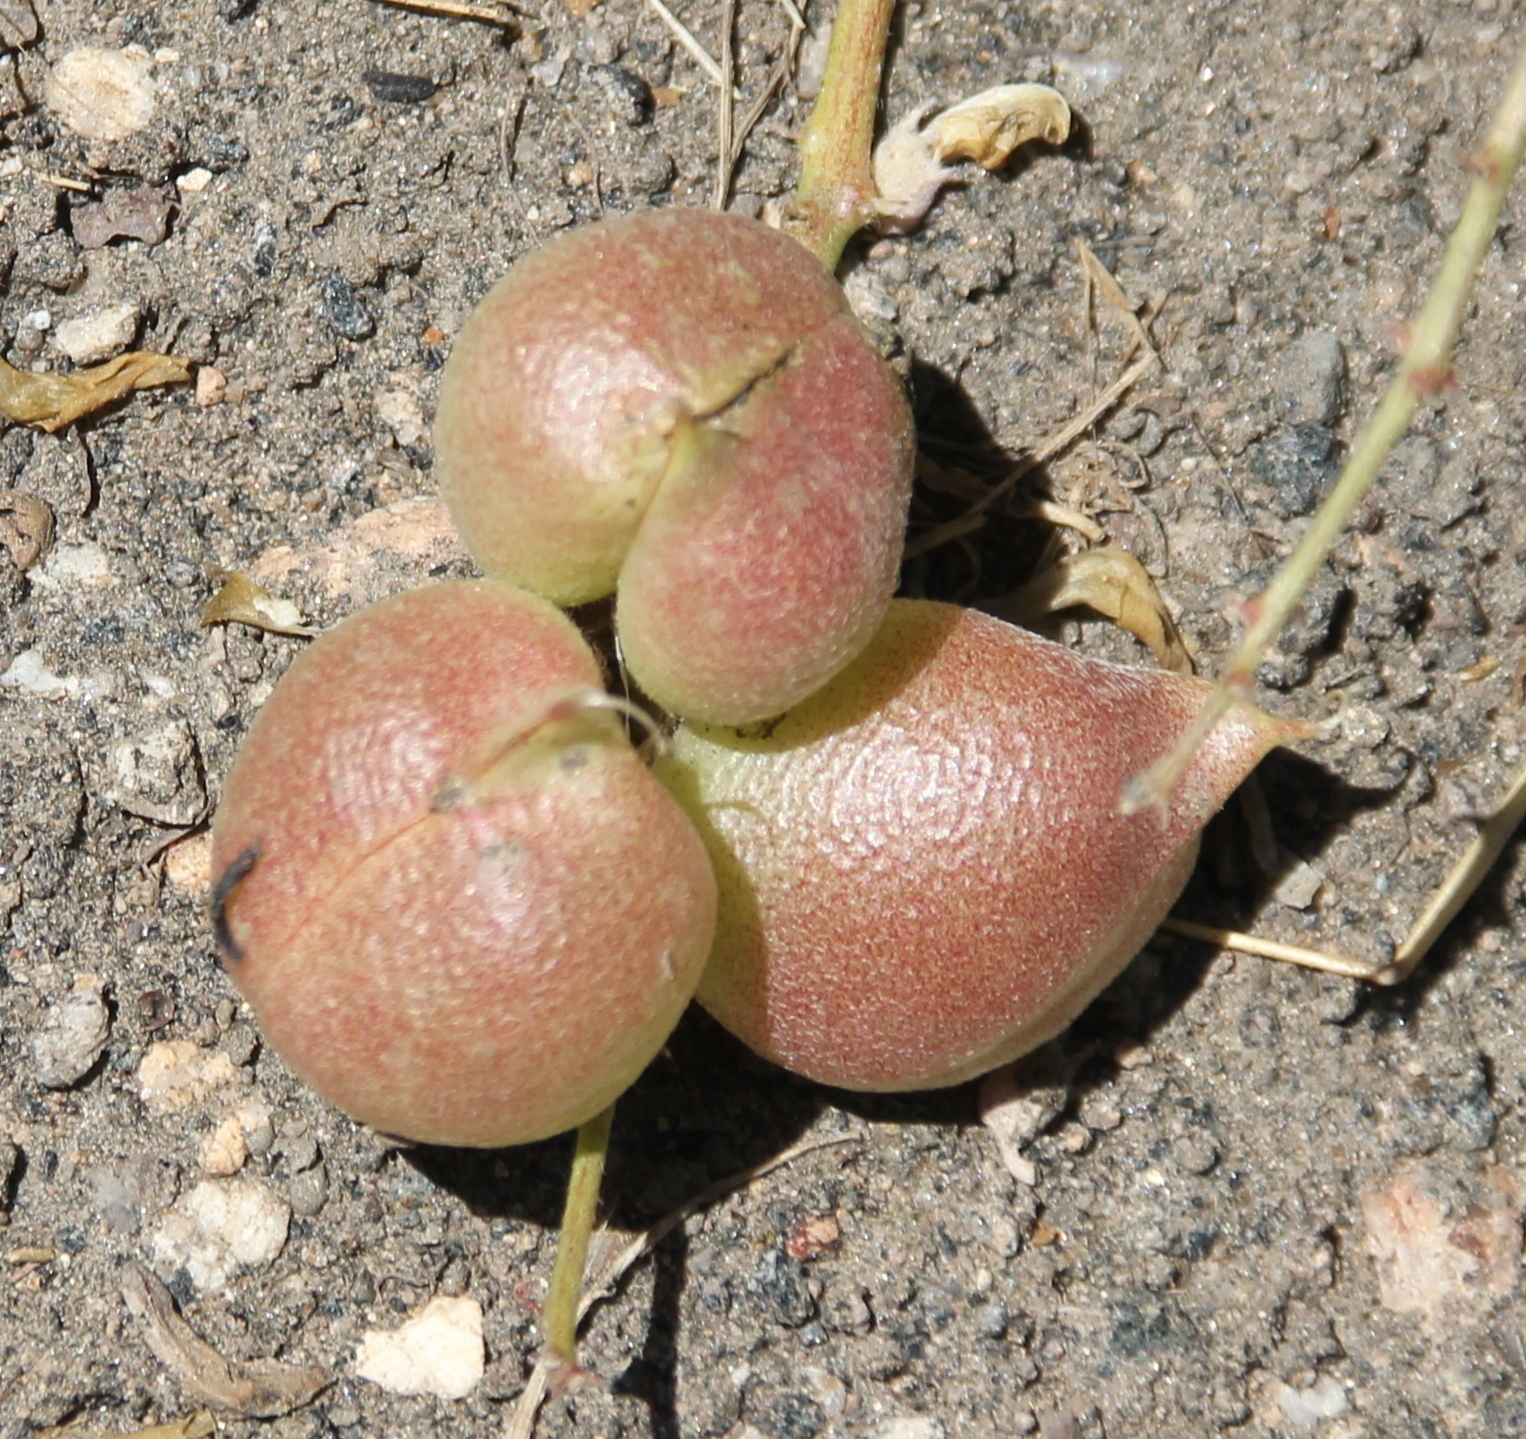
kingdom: Plantae
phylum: Tracheophyta
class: Magnoliopsida
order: Fabales
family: Fabaceae
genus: Astragalus
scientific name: Astragalus douglasii
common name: Jacumba milkvetch
